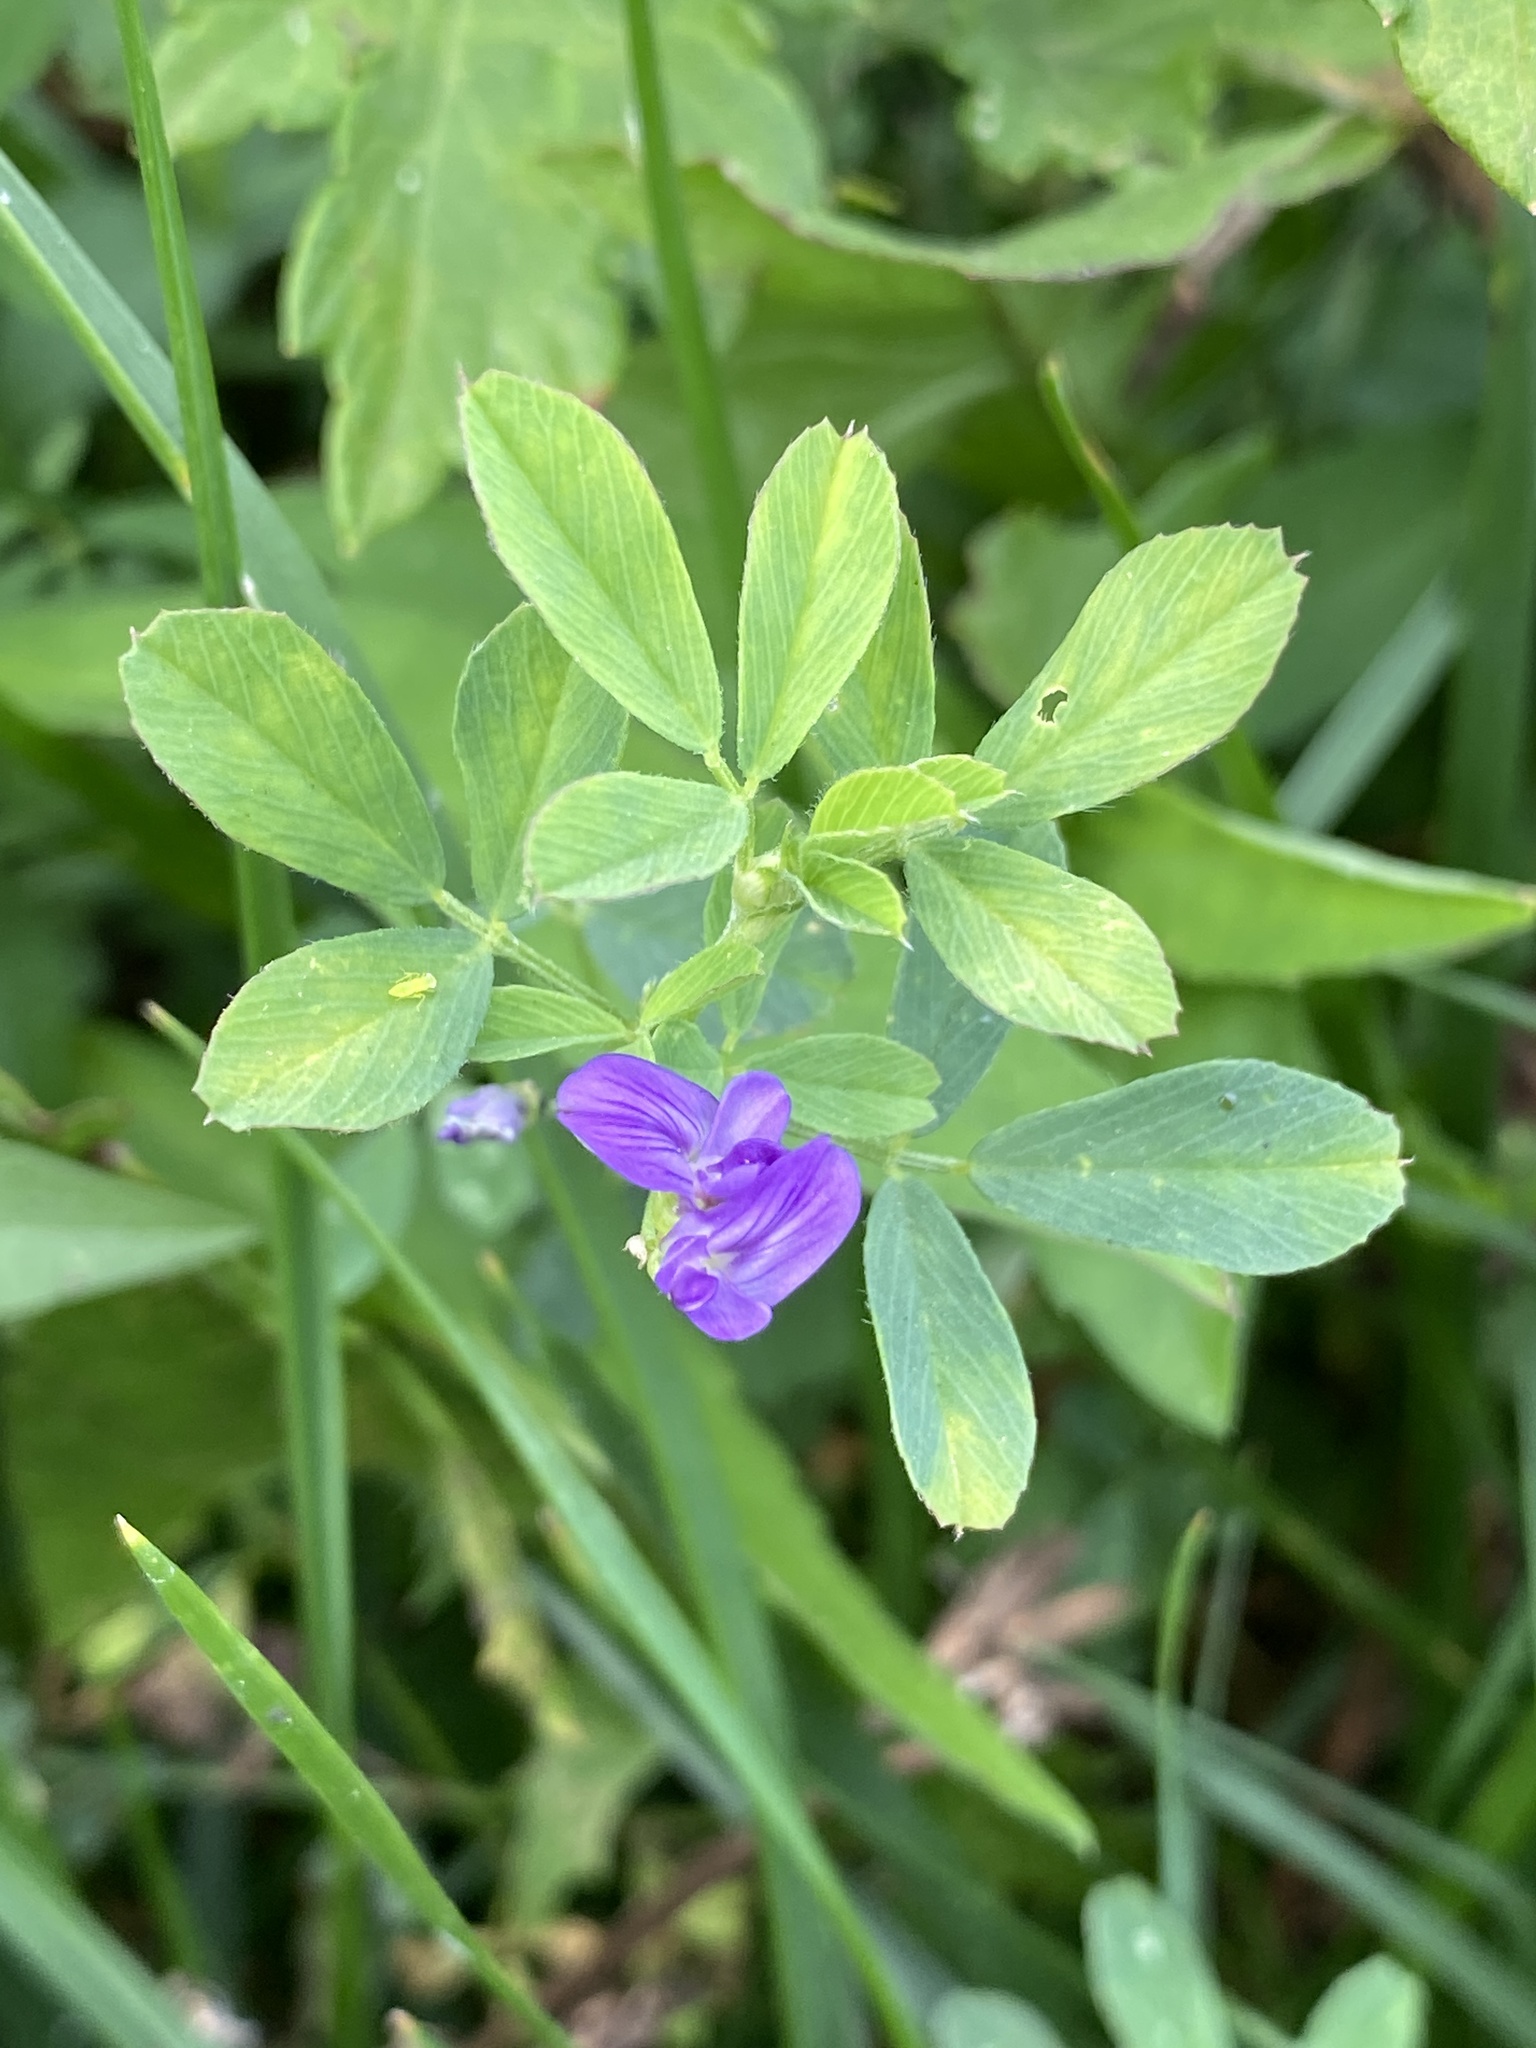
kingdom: Plantae
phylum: Tracheophyta
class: Magnoliopsida
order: Fabales
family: Fabaceae
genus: Medicago
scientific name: Medicago sativa
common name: Alfalfa
